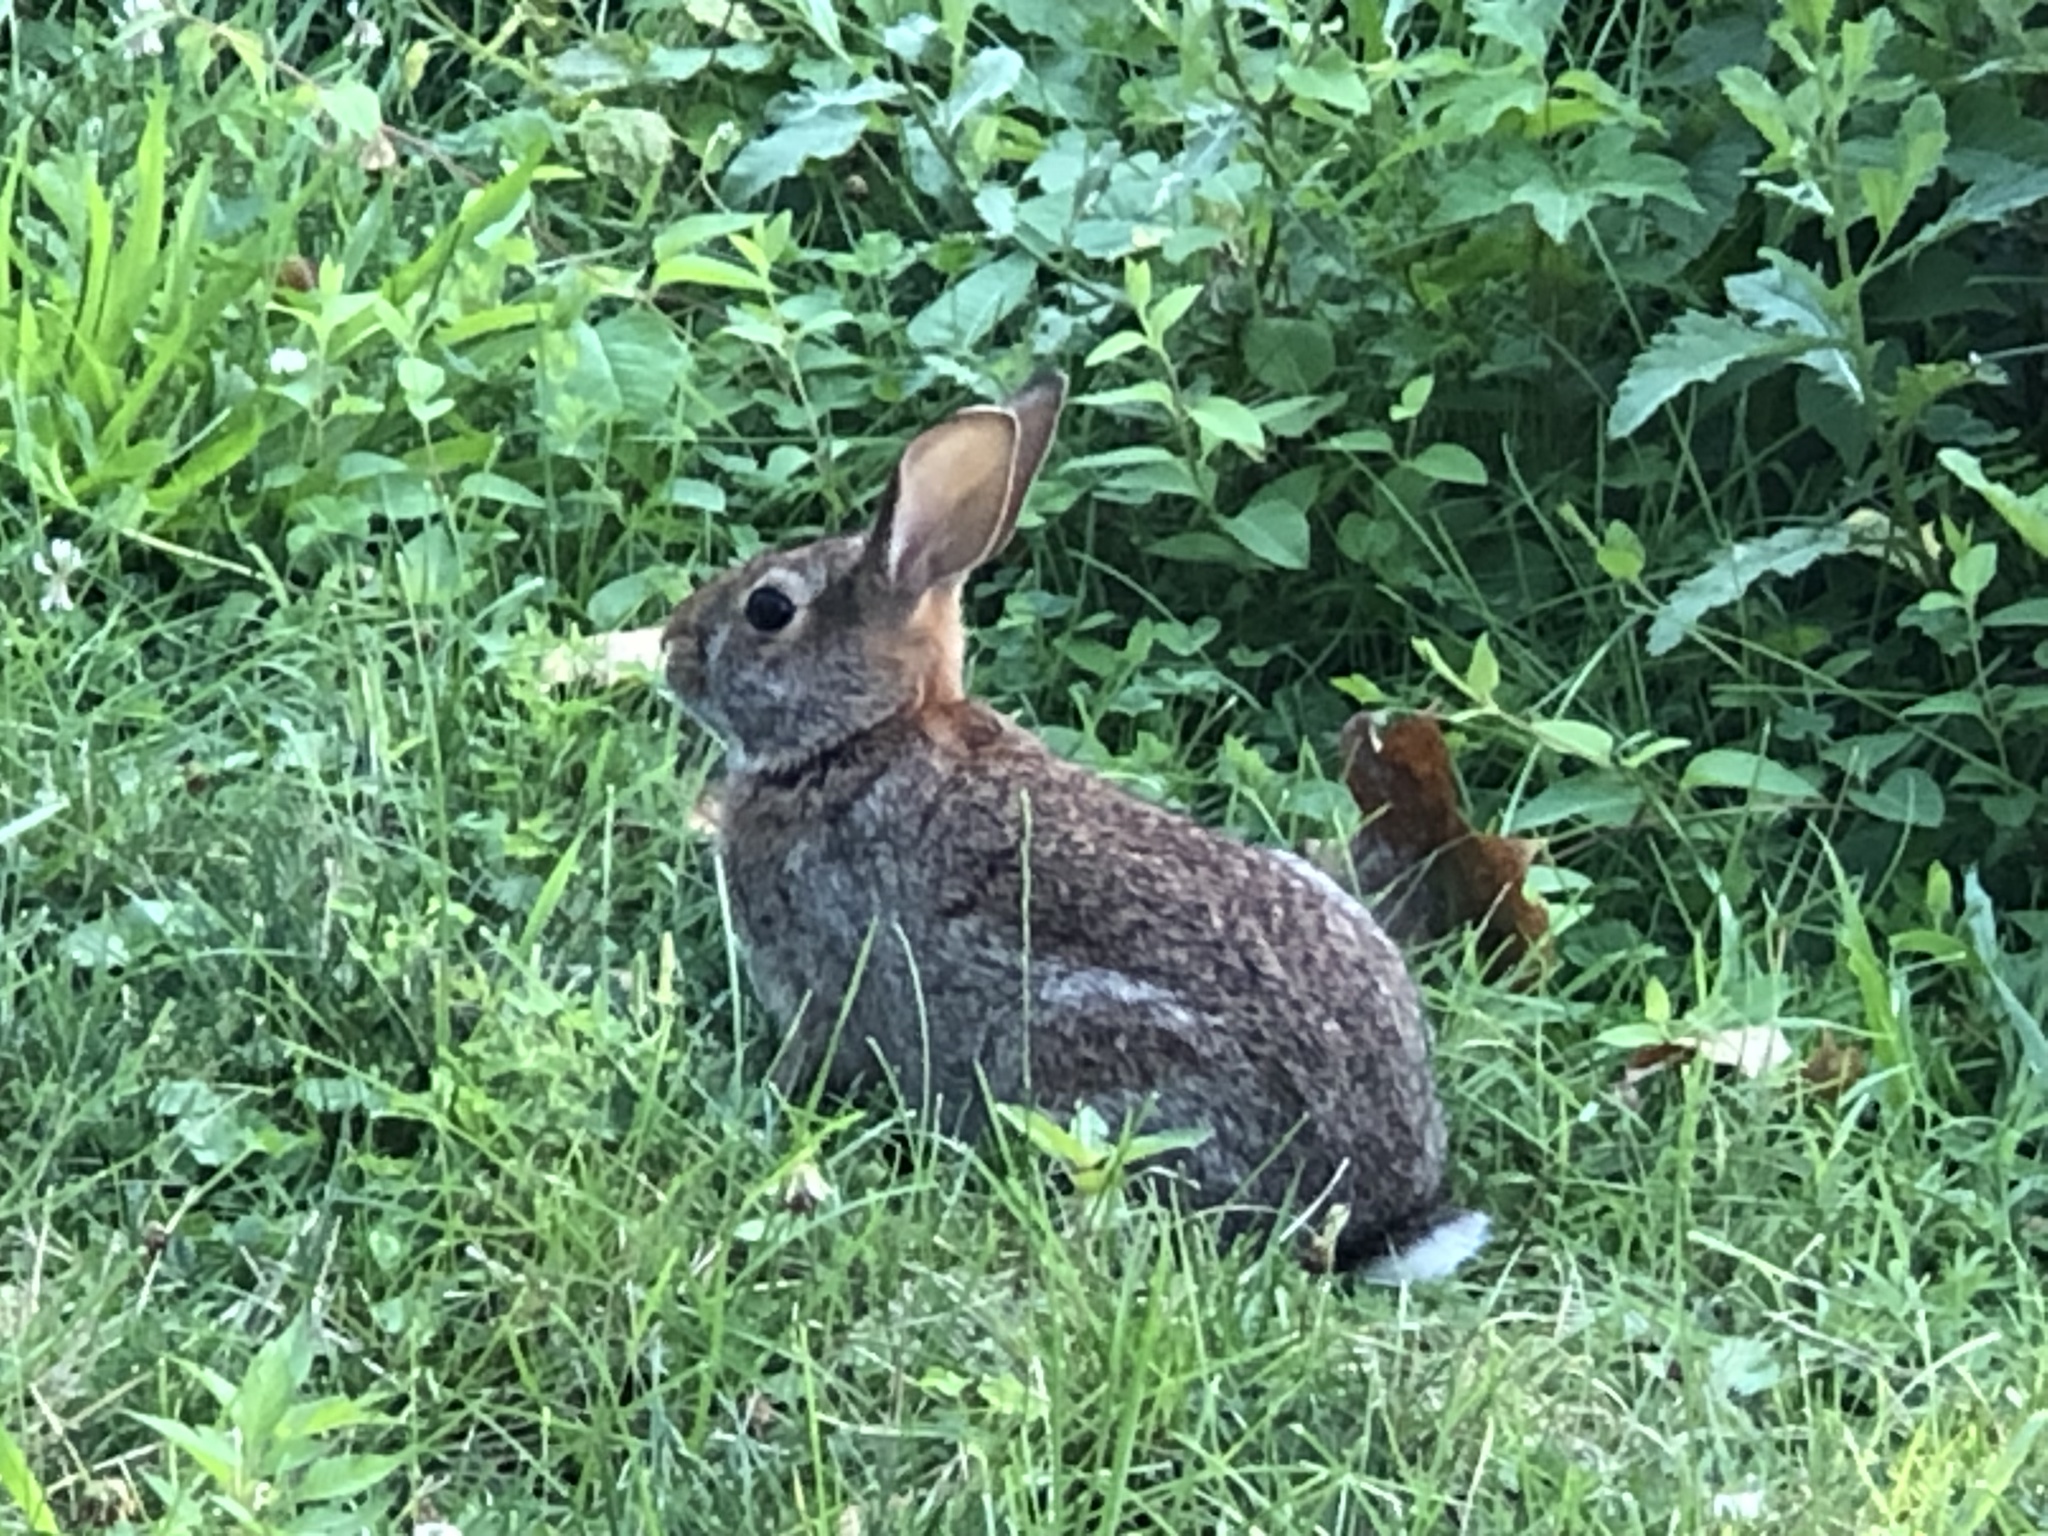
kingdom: Animalia
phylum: Chordata
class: Mammalia
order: Lagomorpha
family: Leporidae
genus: Sylvilagus
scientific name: Sylvilagus floridanus
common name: Eastern cottontail
